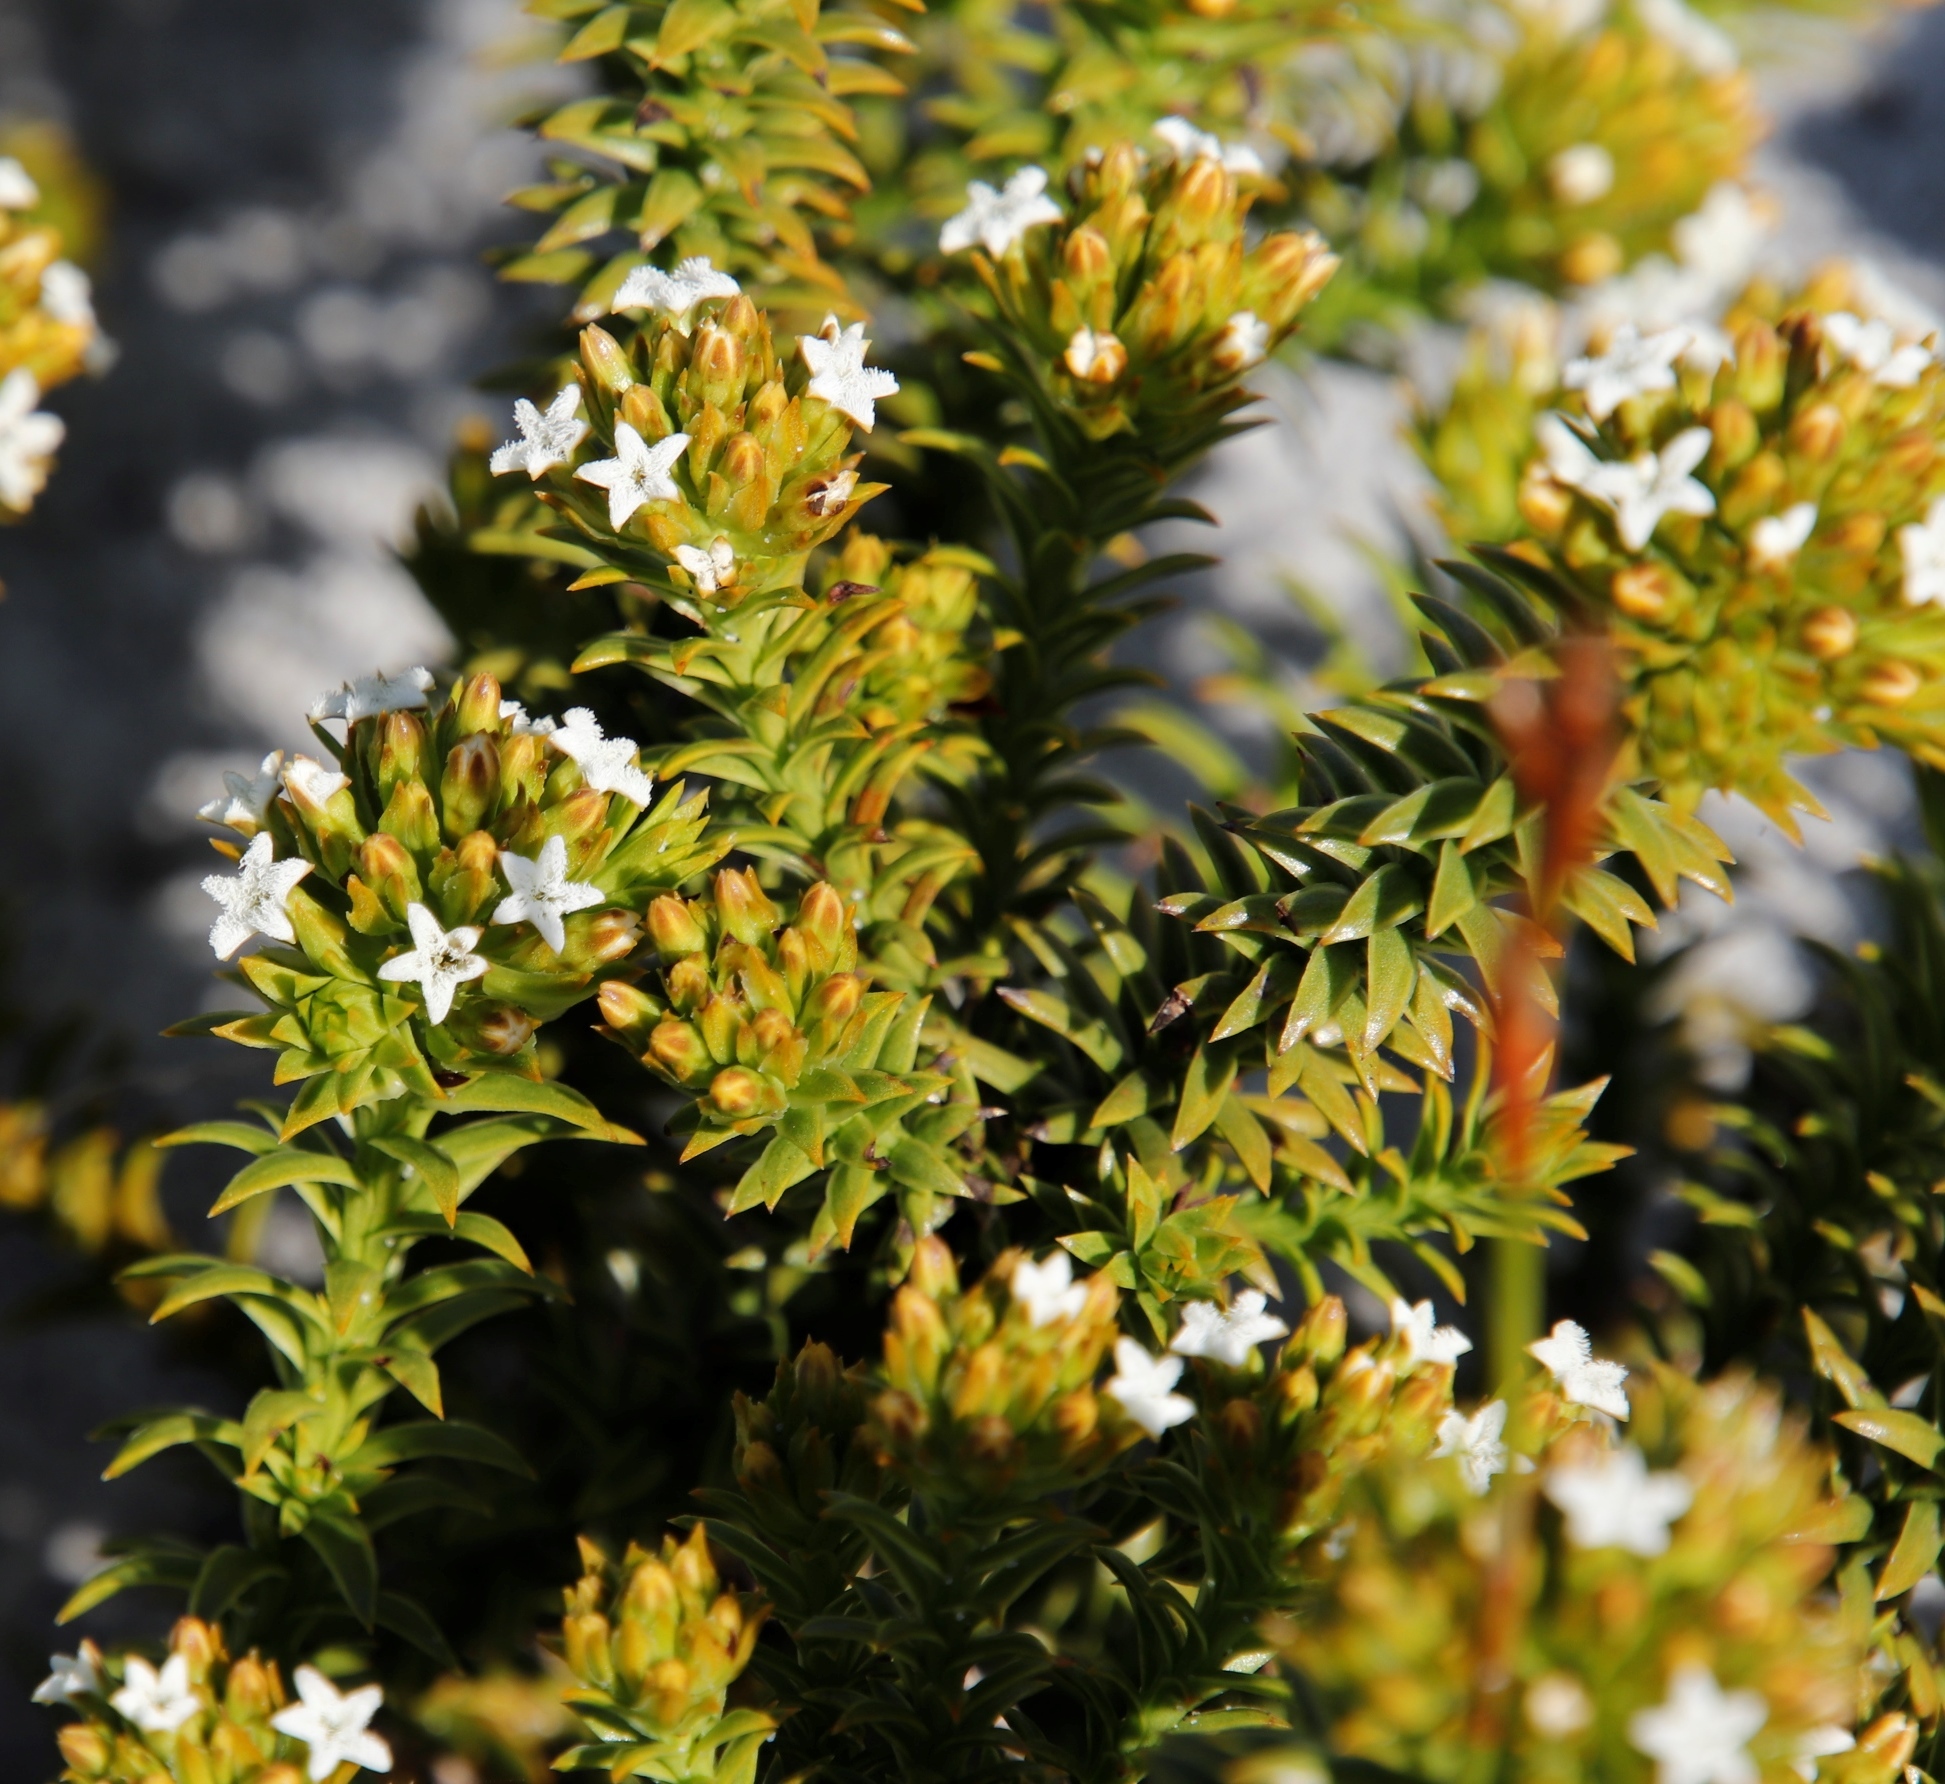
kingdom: Plantae
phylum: Tracheophyta
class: Magnoliopsida
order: Santalales
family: Thesiaceae
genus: Thesium
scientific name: Thesium viridifolium
